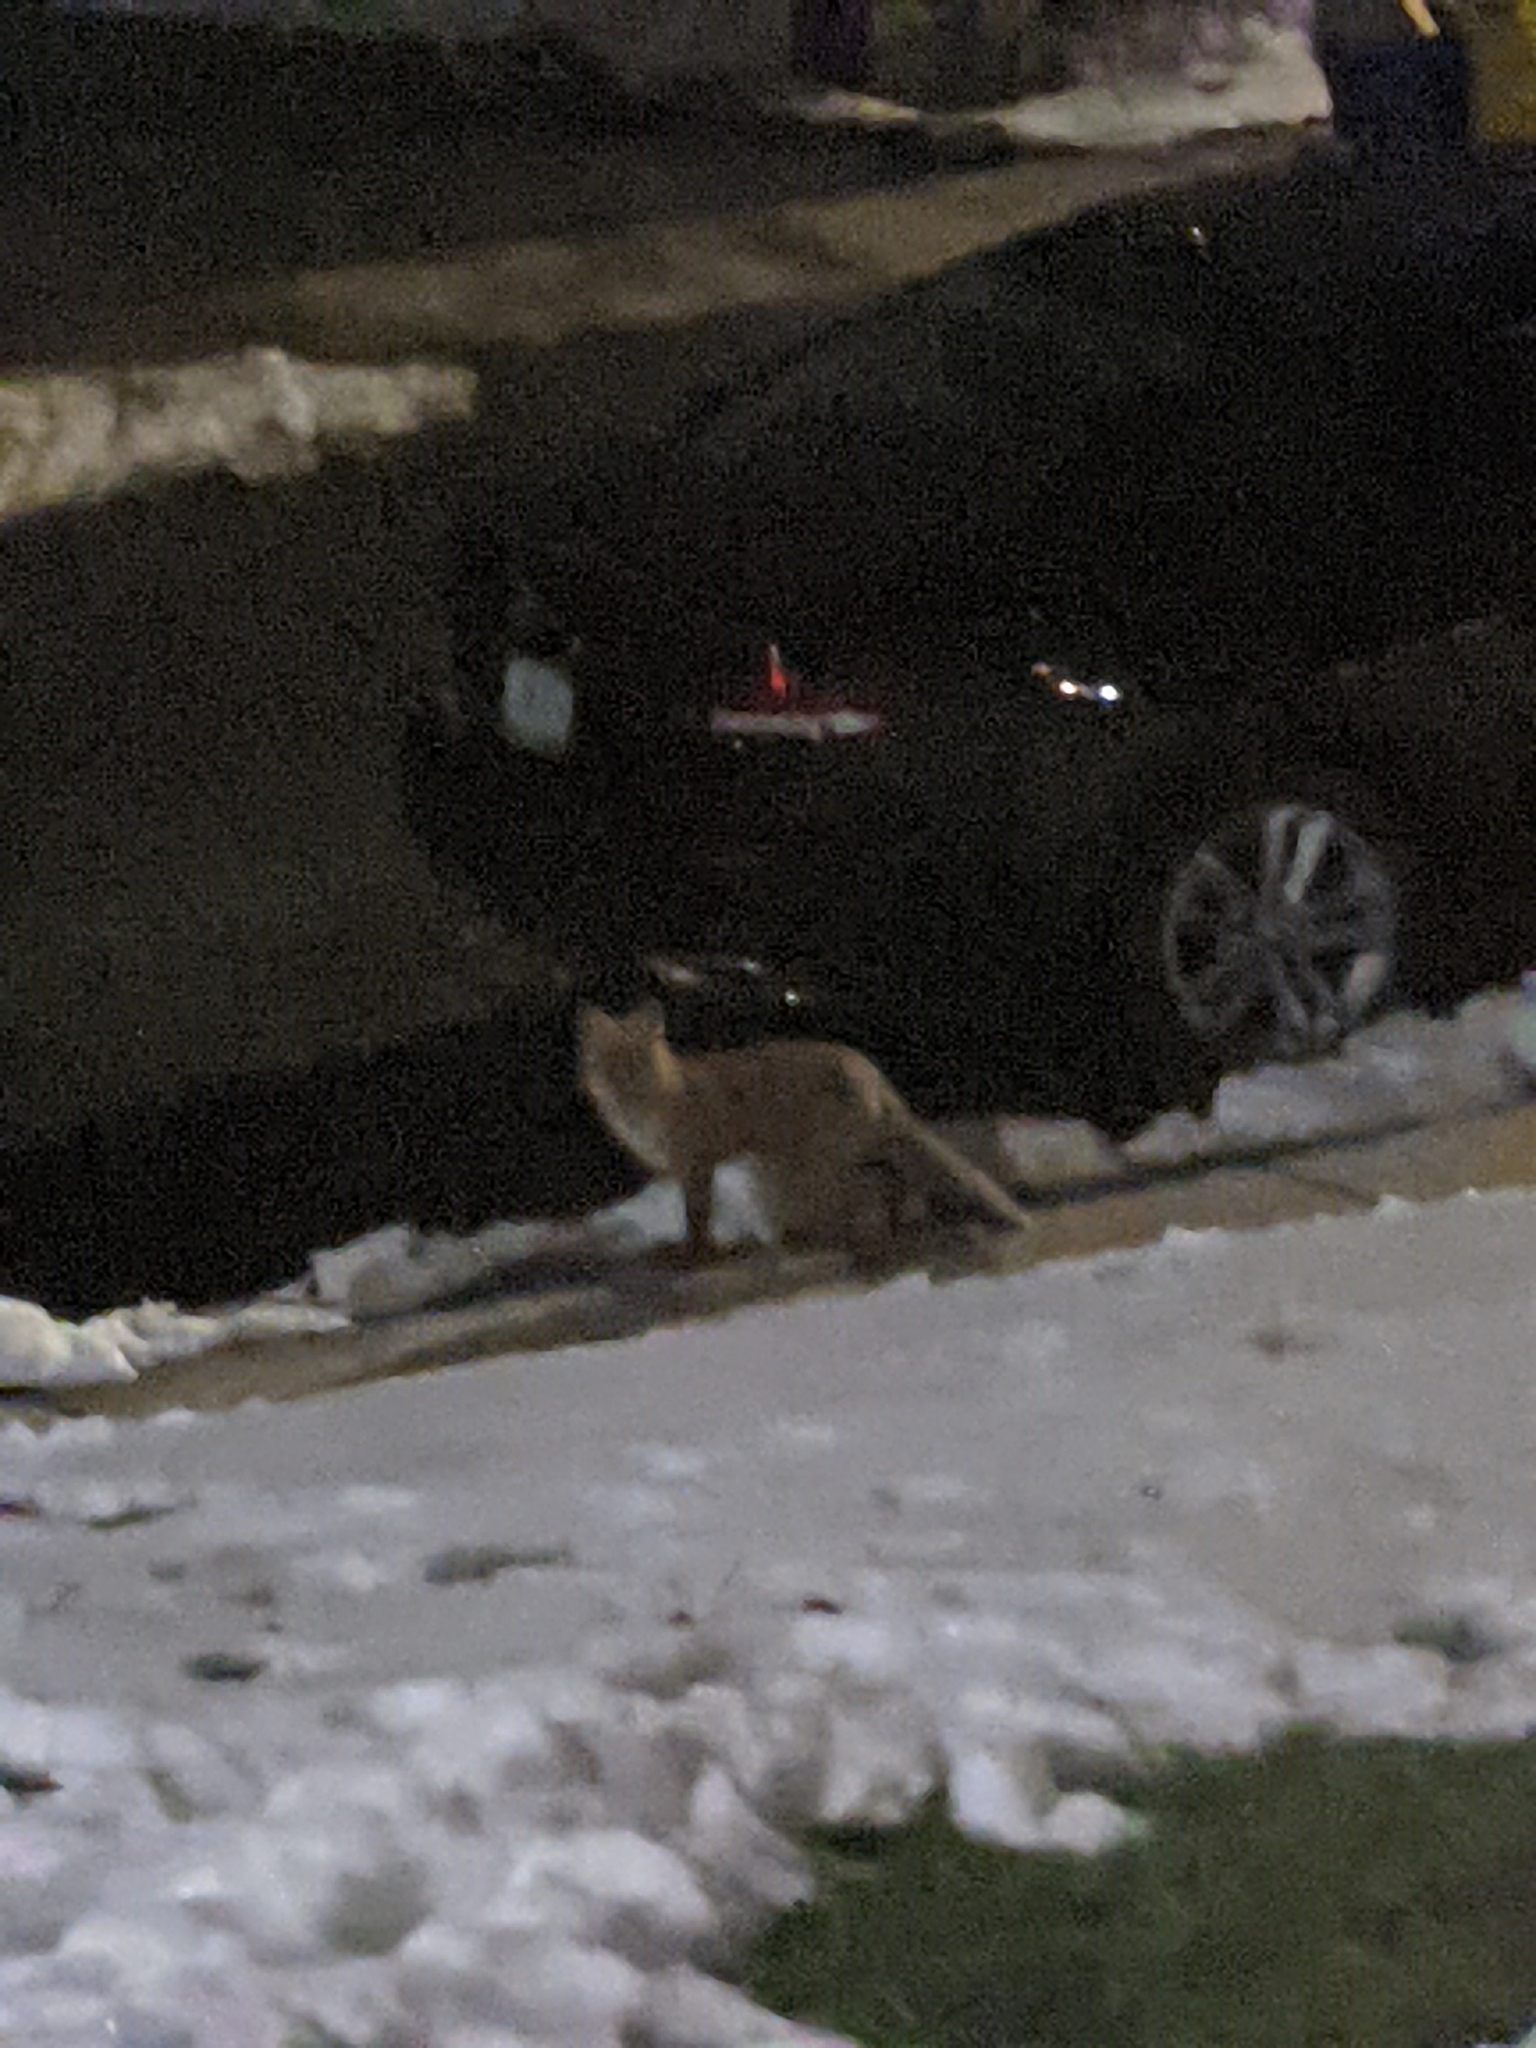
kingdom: Animalia
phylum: Chordata
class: Mammalia
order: Carnivora
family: Canidae
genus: Vulpes
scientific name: Vulpes vulpes
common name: Red fox
